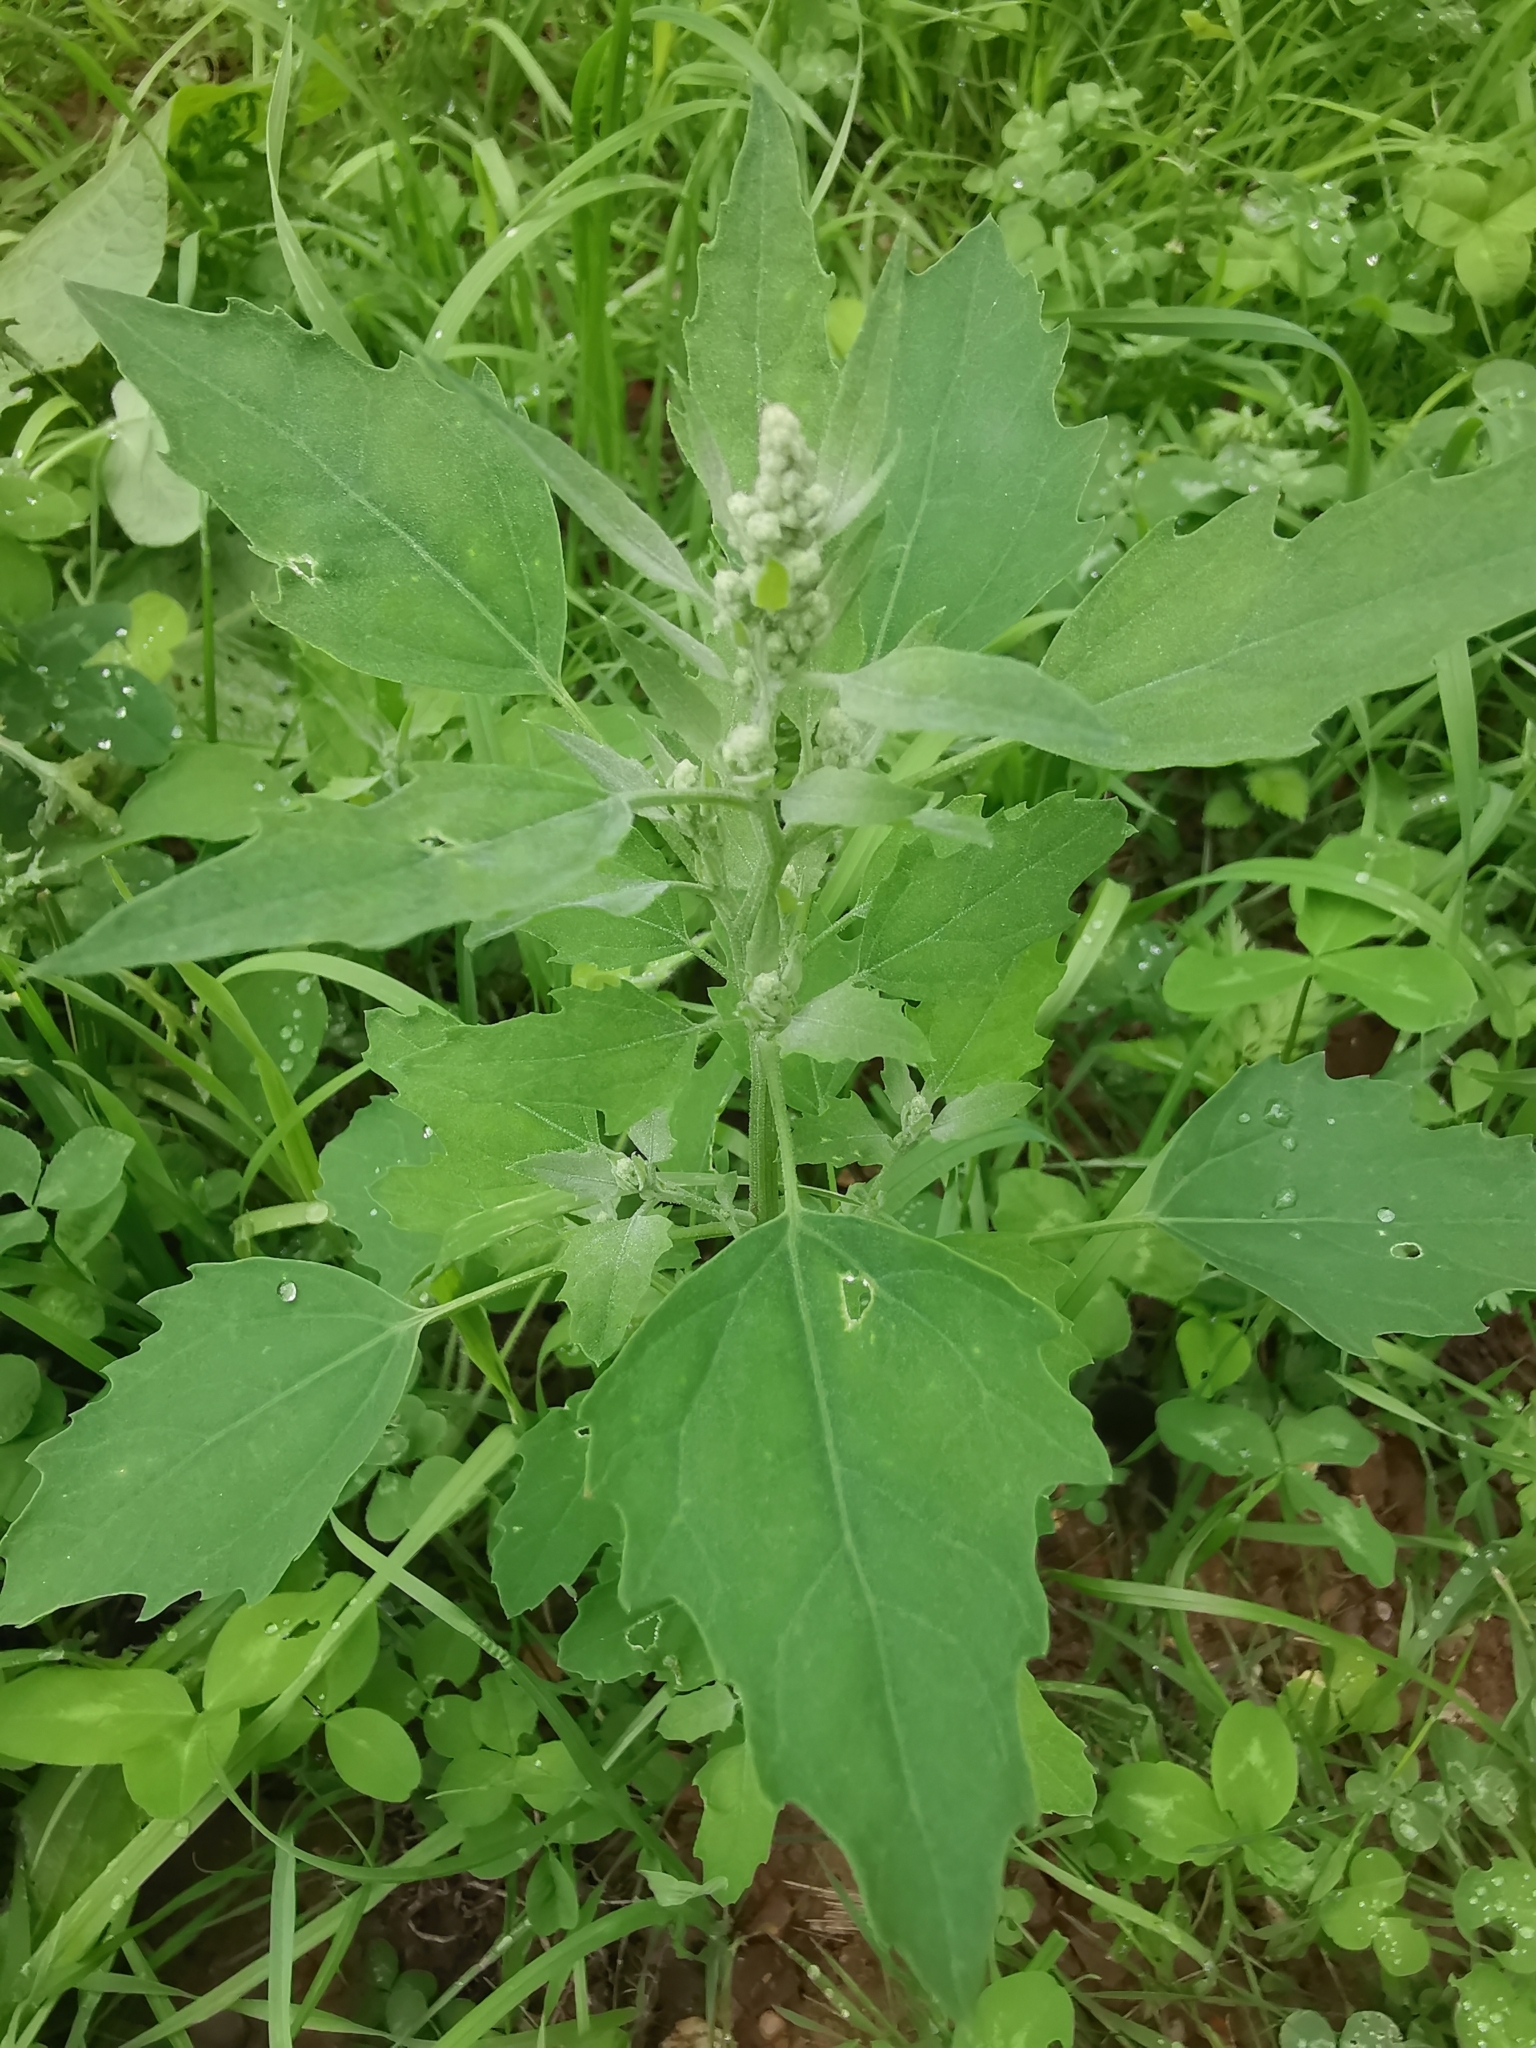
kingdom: Plantae
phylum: Tracheophyta
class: Magnoliopsida
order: Caryophyllales
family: Amaranthaceae
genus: Chenopodium
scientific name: Chenopodium album
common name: Fat-hen
